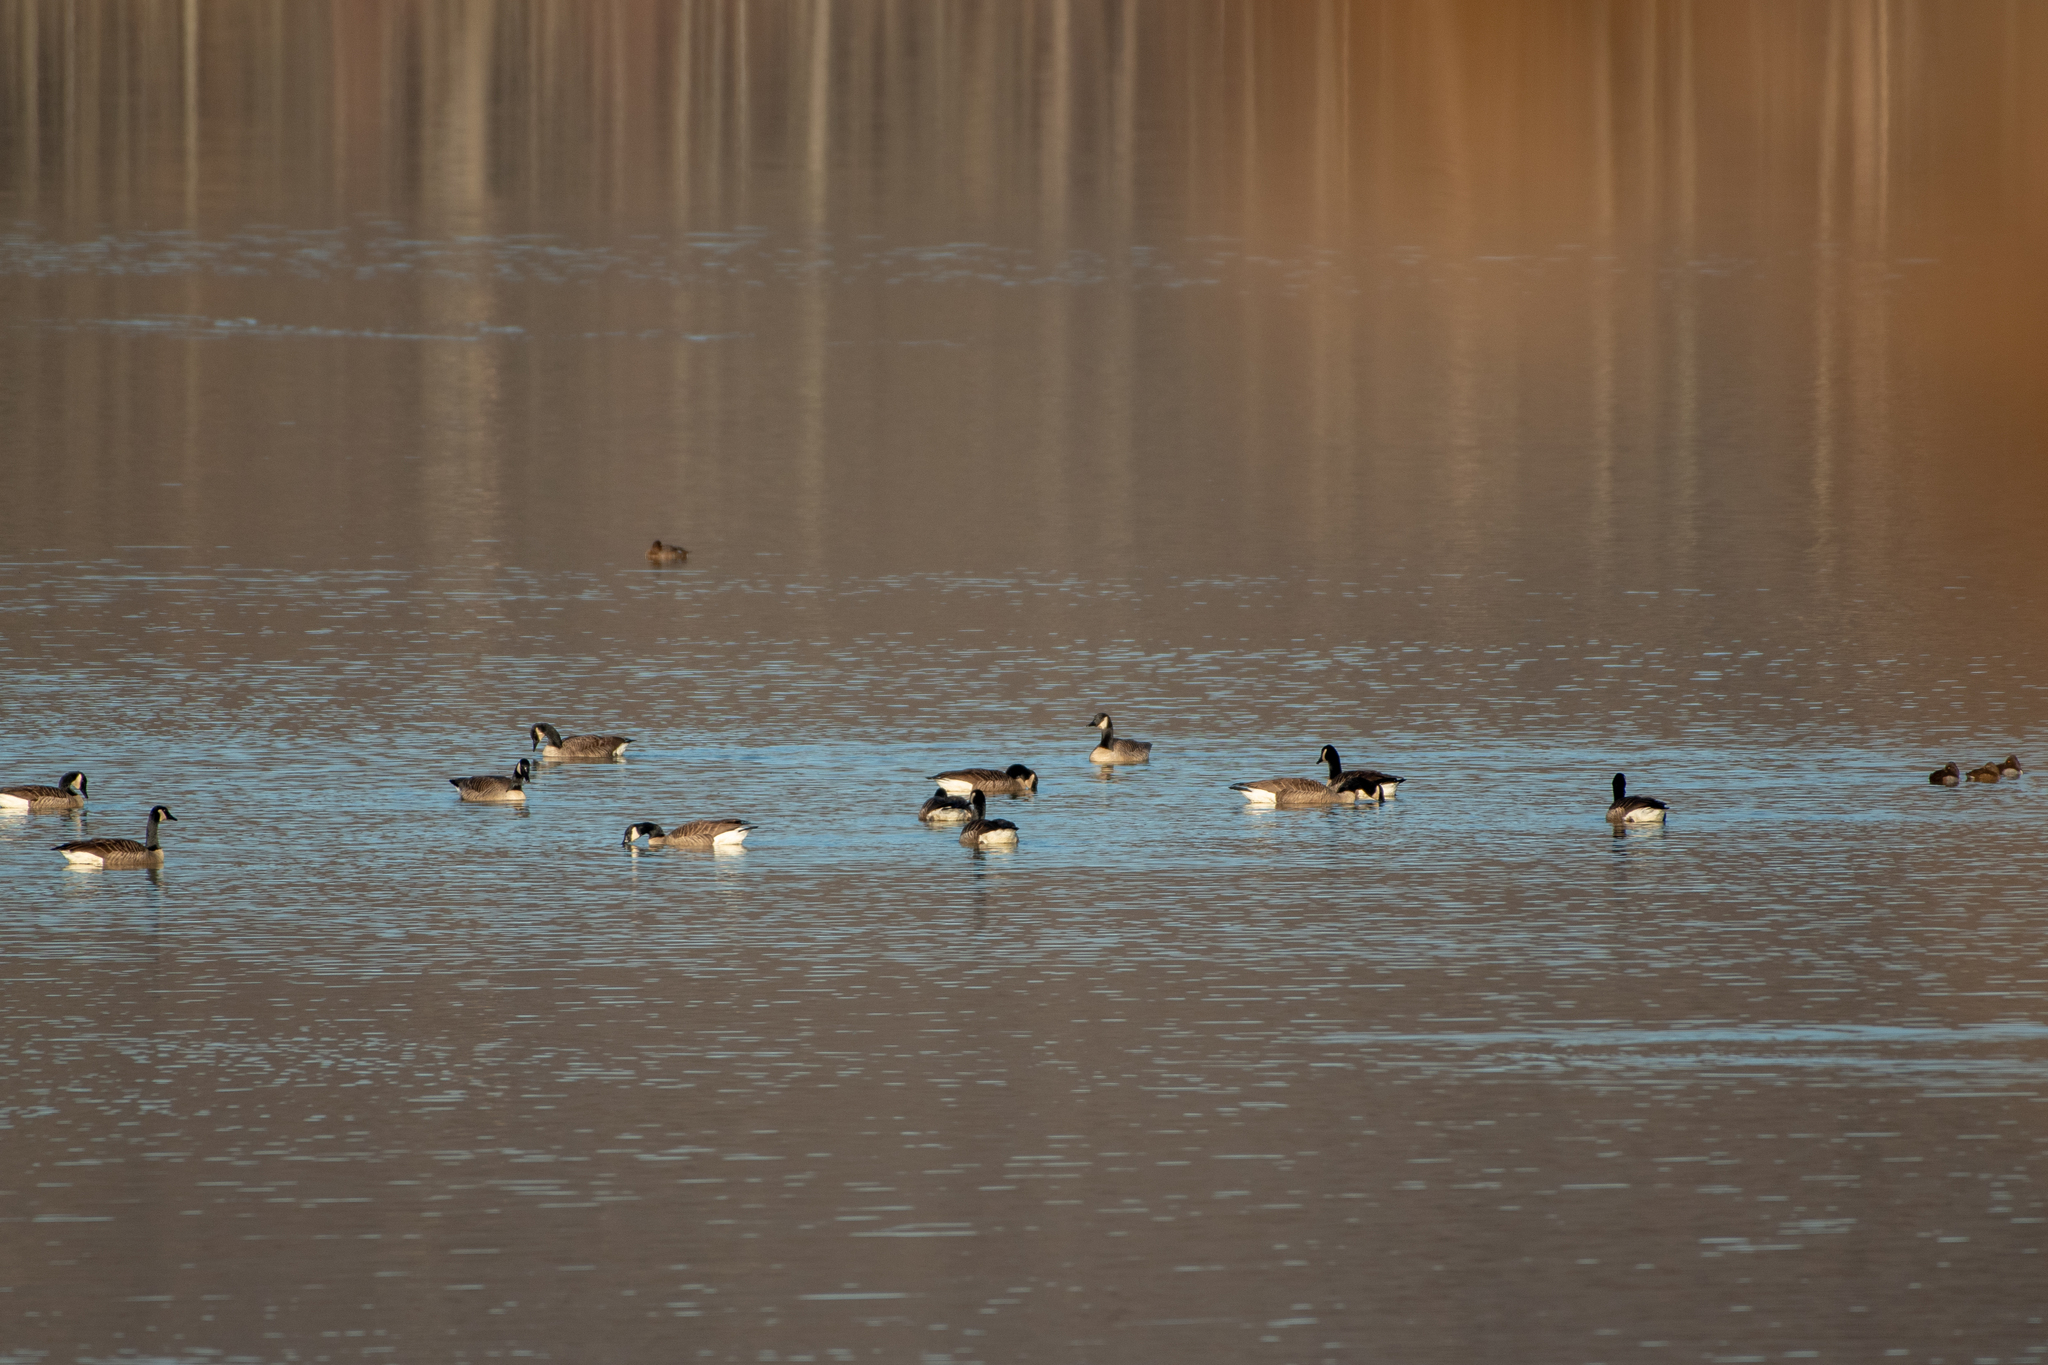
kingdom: Animalia
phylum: Chordata
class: Aves
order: Anseriformes
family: Anatidae
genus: Branta
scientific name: Branta canadensis
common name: Canada goose
